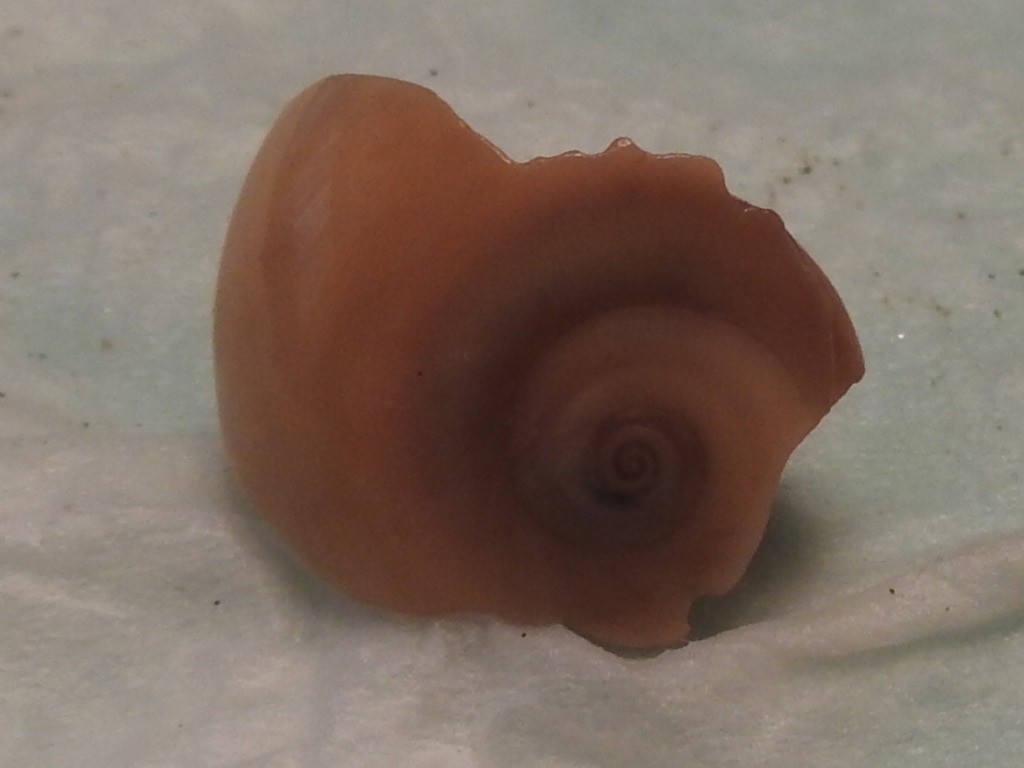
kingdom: Animalia
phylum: Mollusca
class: Gastropoda
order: Littorinimorpha
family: Naticidae
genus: Neverita
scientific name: Neverita duplicata
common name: Lobed moonsnail
